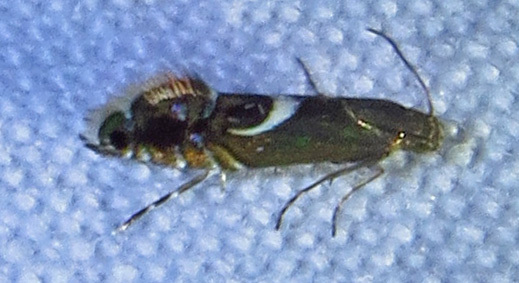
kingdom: Animalia
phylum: Arthropoda
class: Insecta
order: Lepidoptera
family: Glyphipterigidae
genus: Glyphipterix
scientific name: Glyphipterix Diploschizia impigritella
